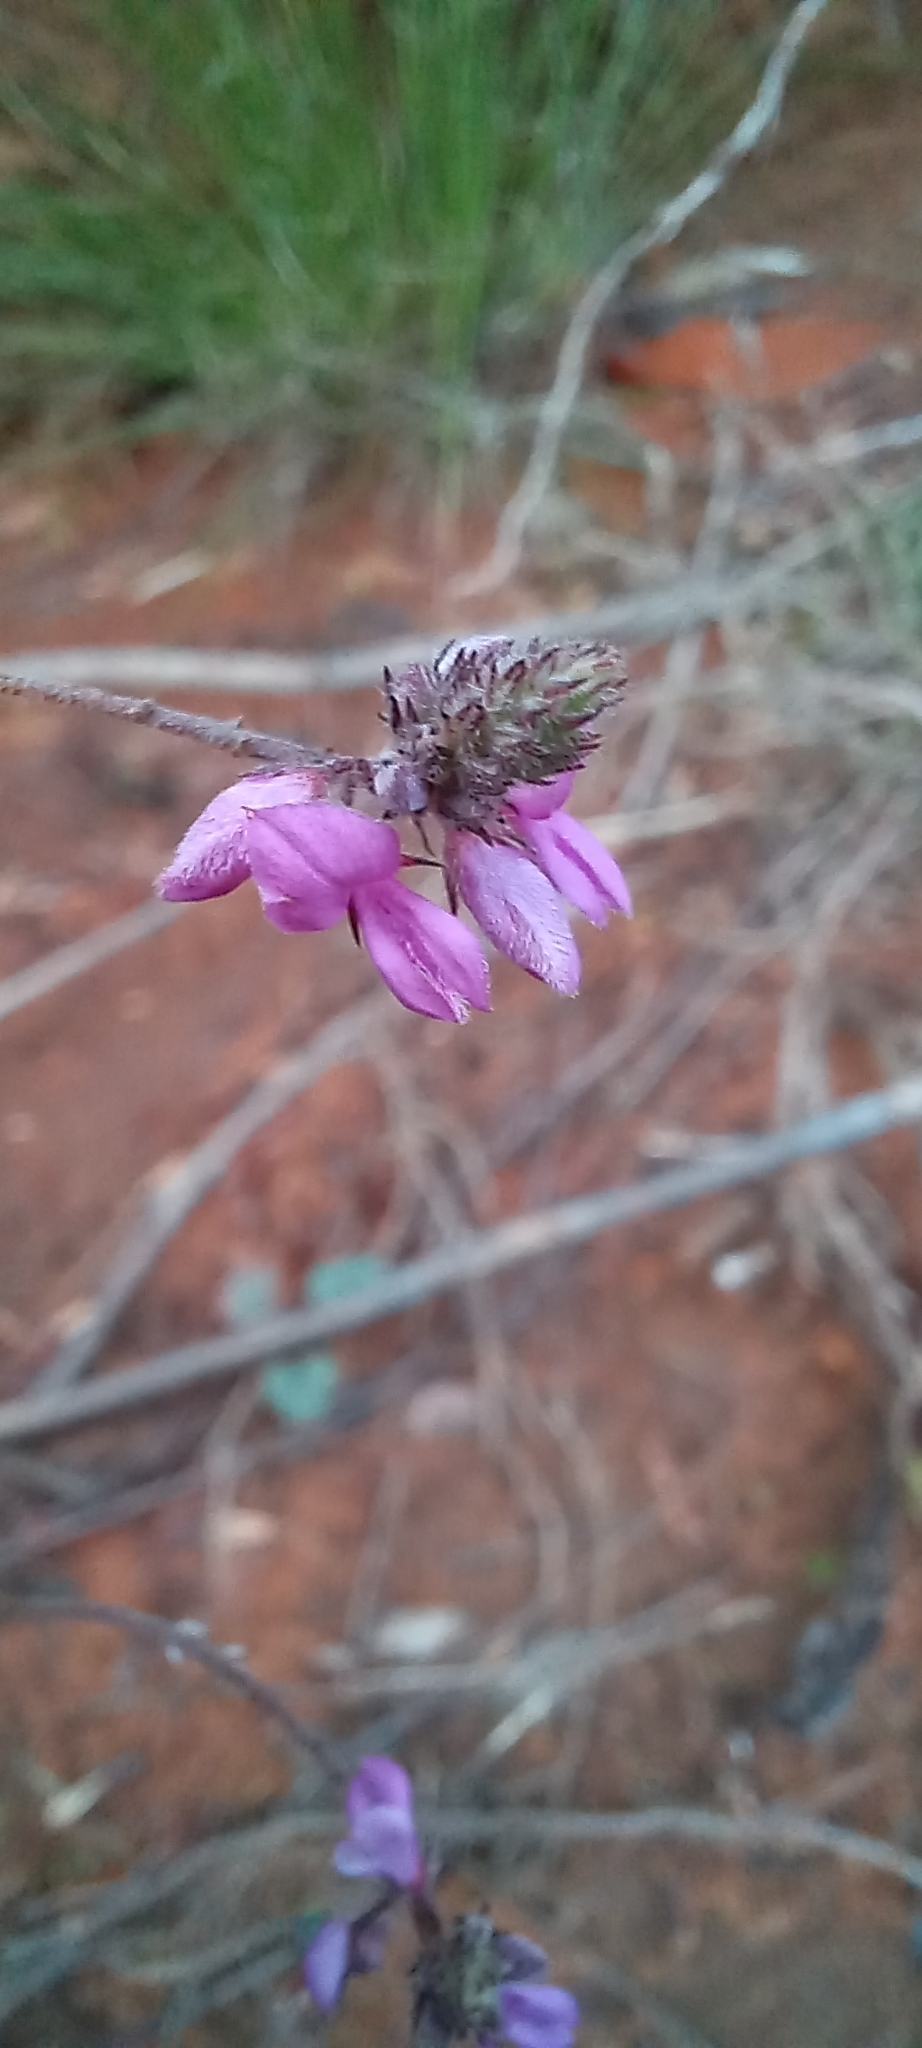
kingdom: Plantae
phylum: Tracheophyta
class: Magnoliopsida
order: Fabales
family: Fabaceae
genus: Indigofera
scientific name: Indigofera alopecuroides
